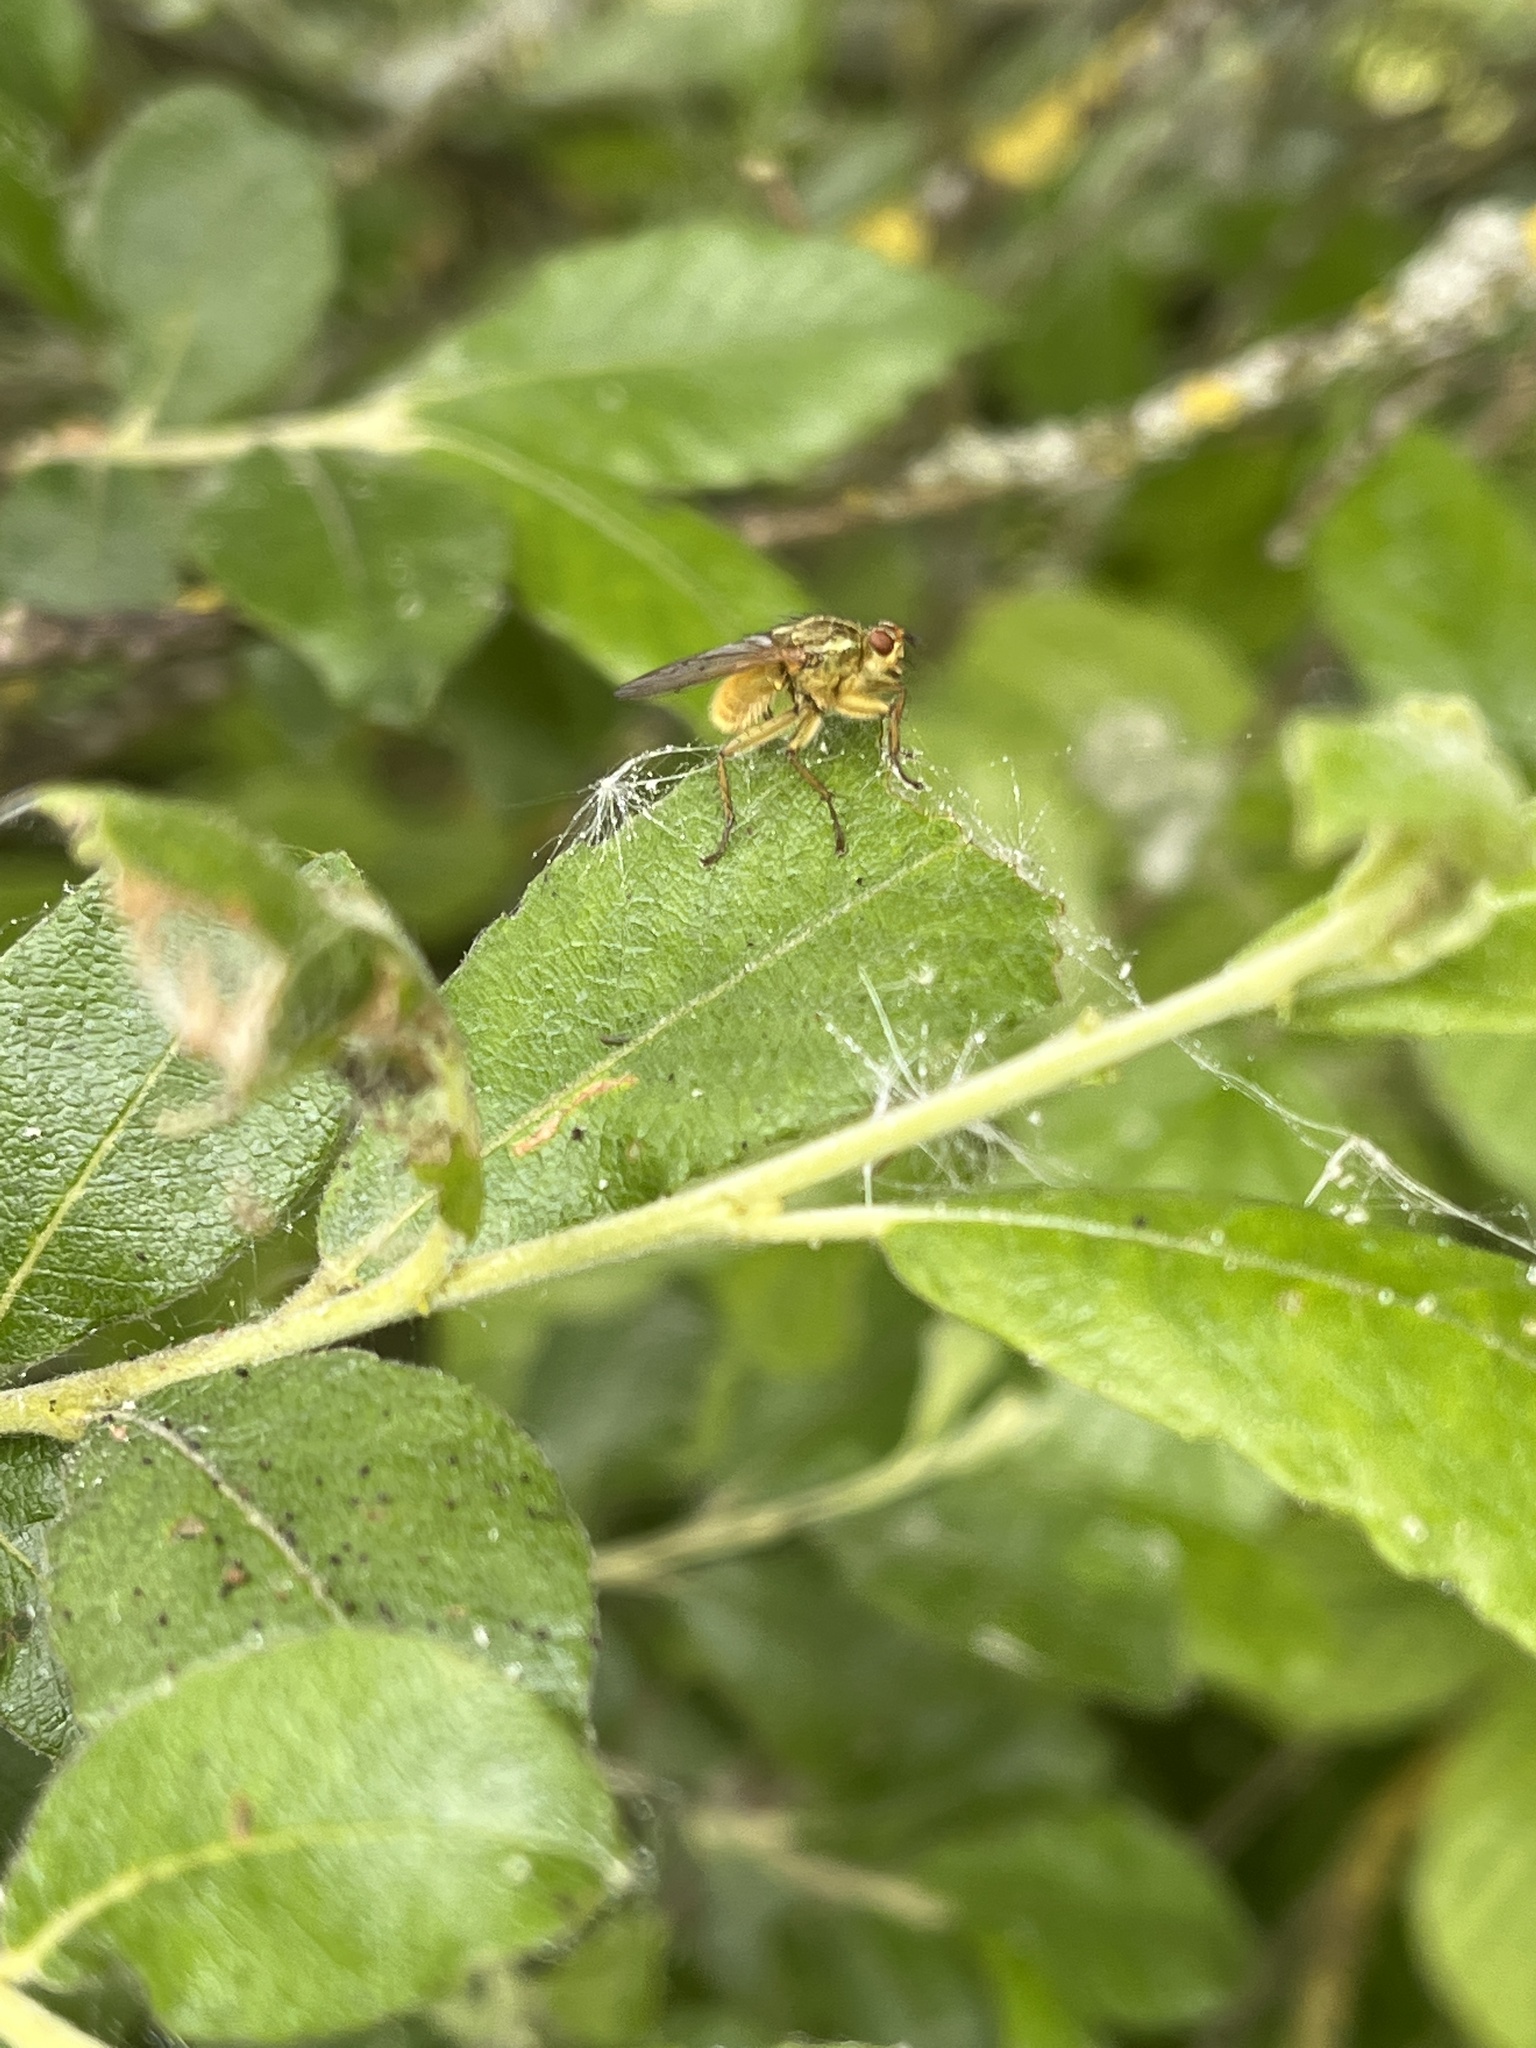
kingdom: Animalia
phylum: Arthropoda
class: Insecta
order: Diptera
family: Scathophagidae
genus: Scathophaga
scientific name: Scathophaga stercoraria
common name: Yellow dung fly
